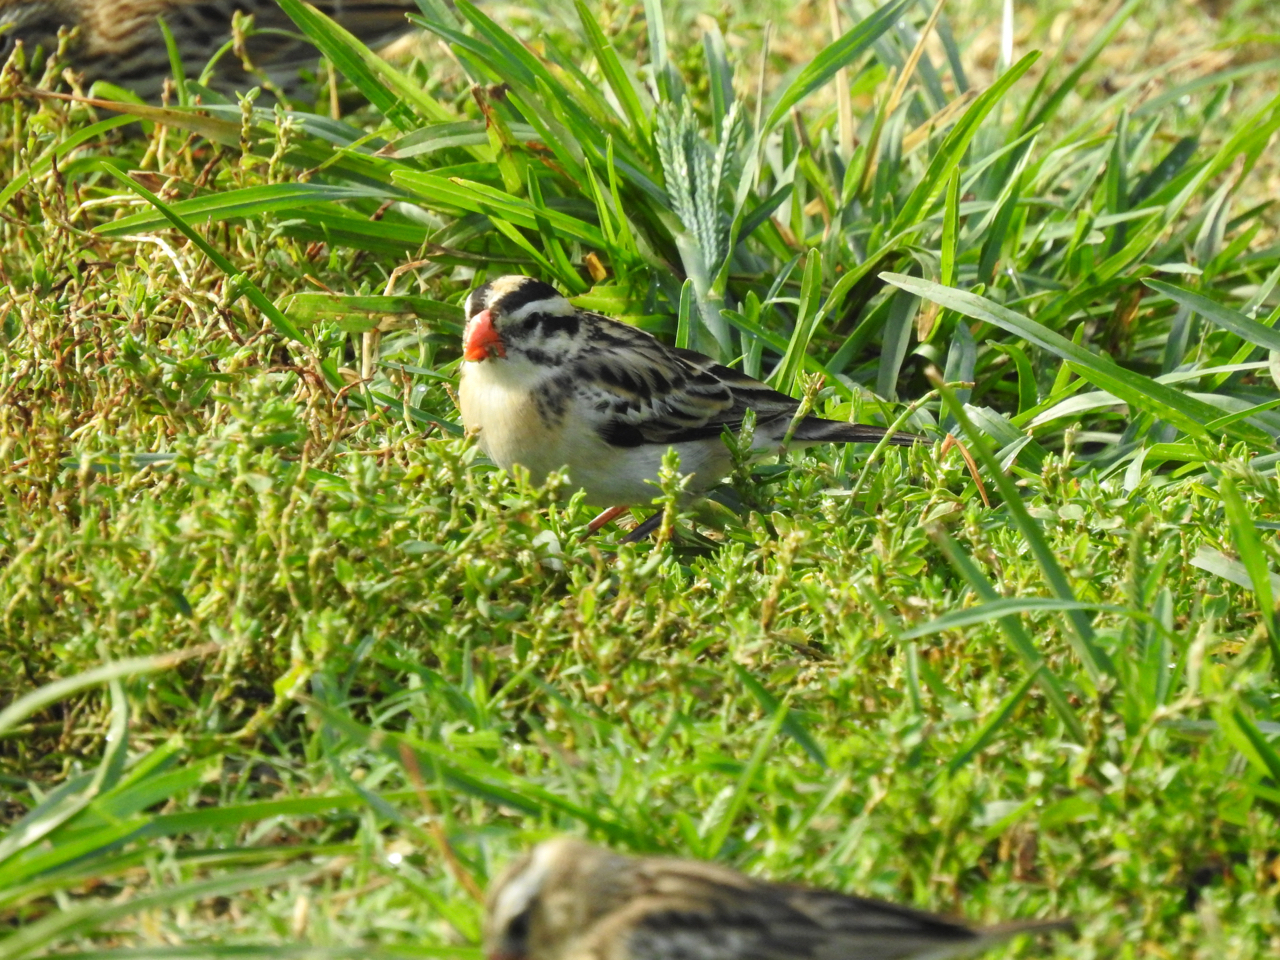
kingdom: Animalia
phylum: Chordata
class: Aves
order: Passeriformes
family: Viduidae
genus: Vidua
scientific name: Vidua macroura
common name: Pin-tailed whydah
